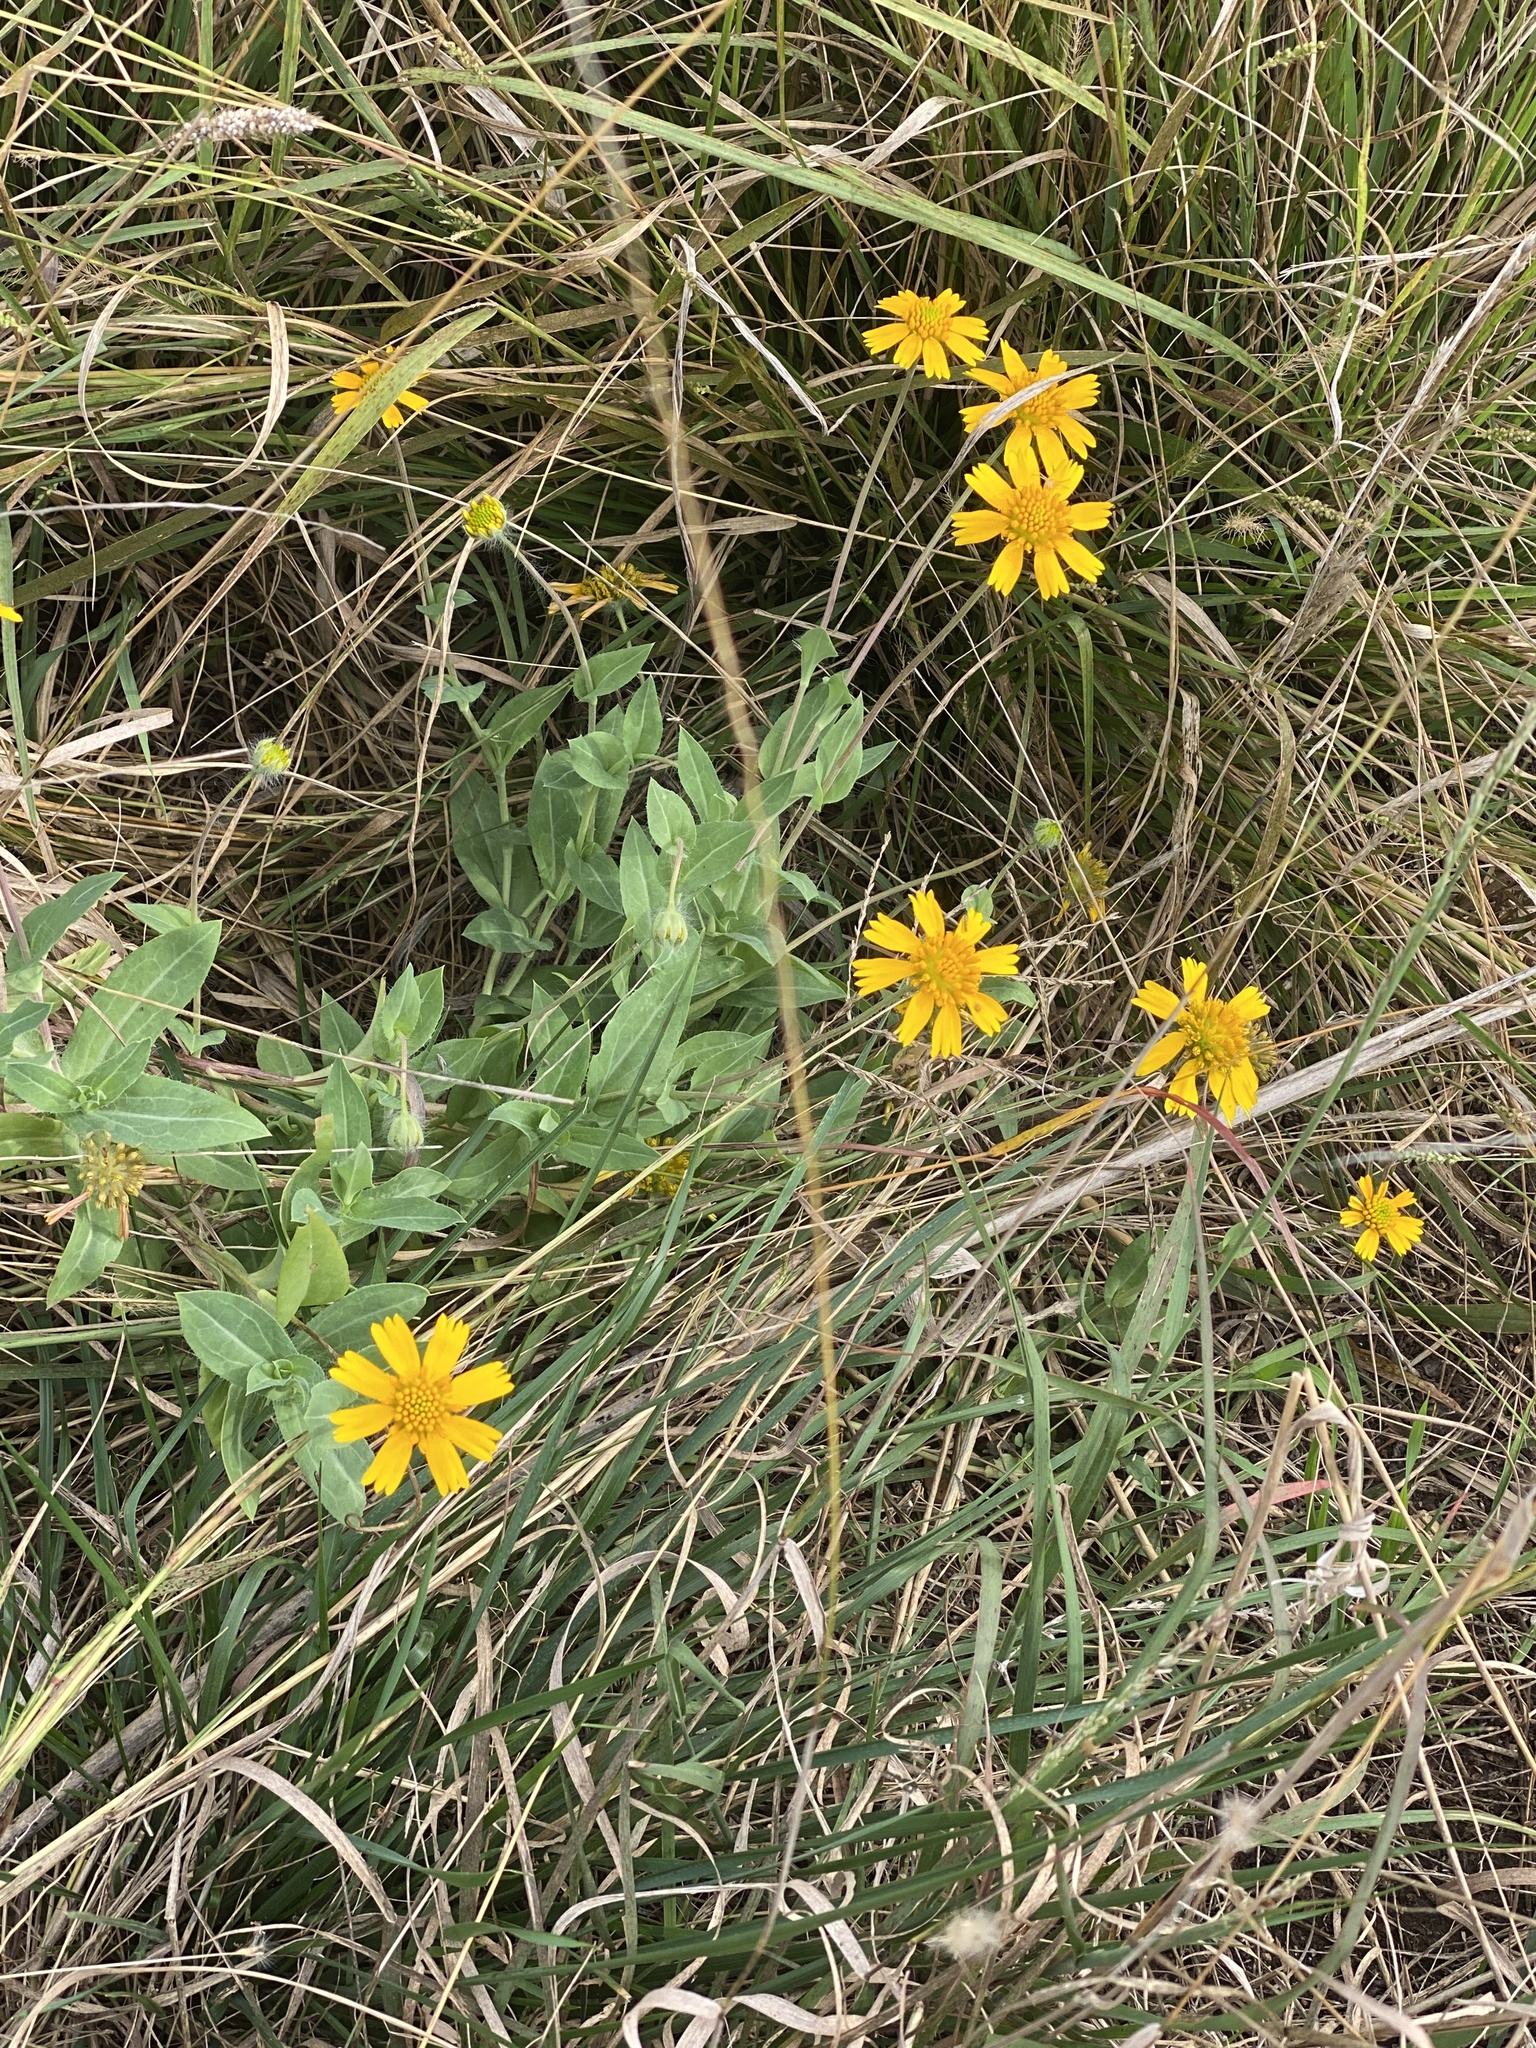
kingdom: Plantae
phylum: Tracheophyta
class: Magnoliopsida
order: Asterales
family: Asteraceae
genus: Amblyolepis
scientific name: Amblyolepis setigera
